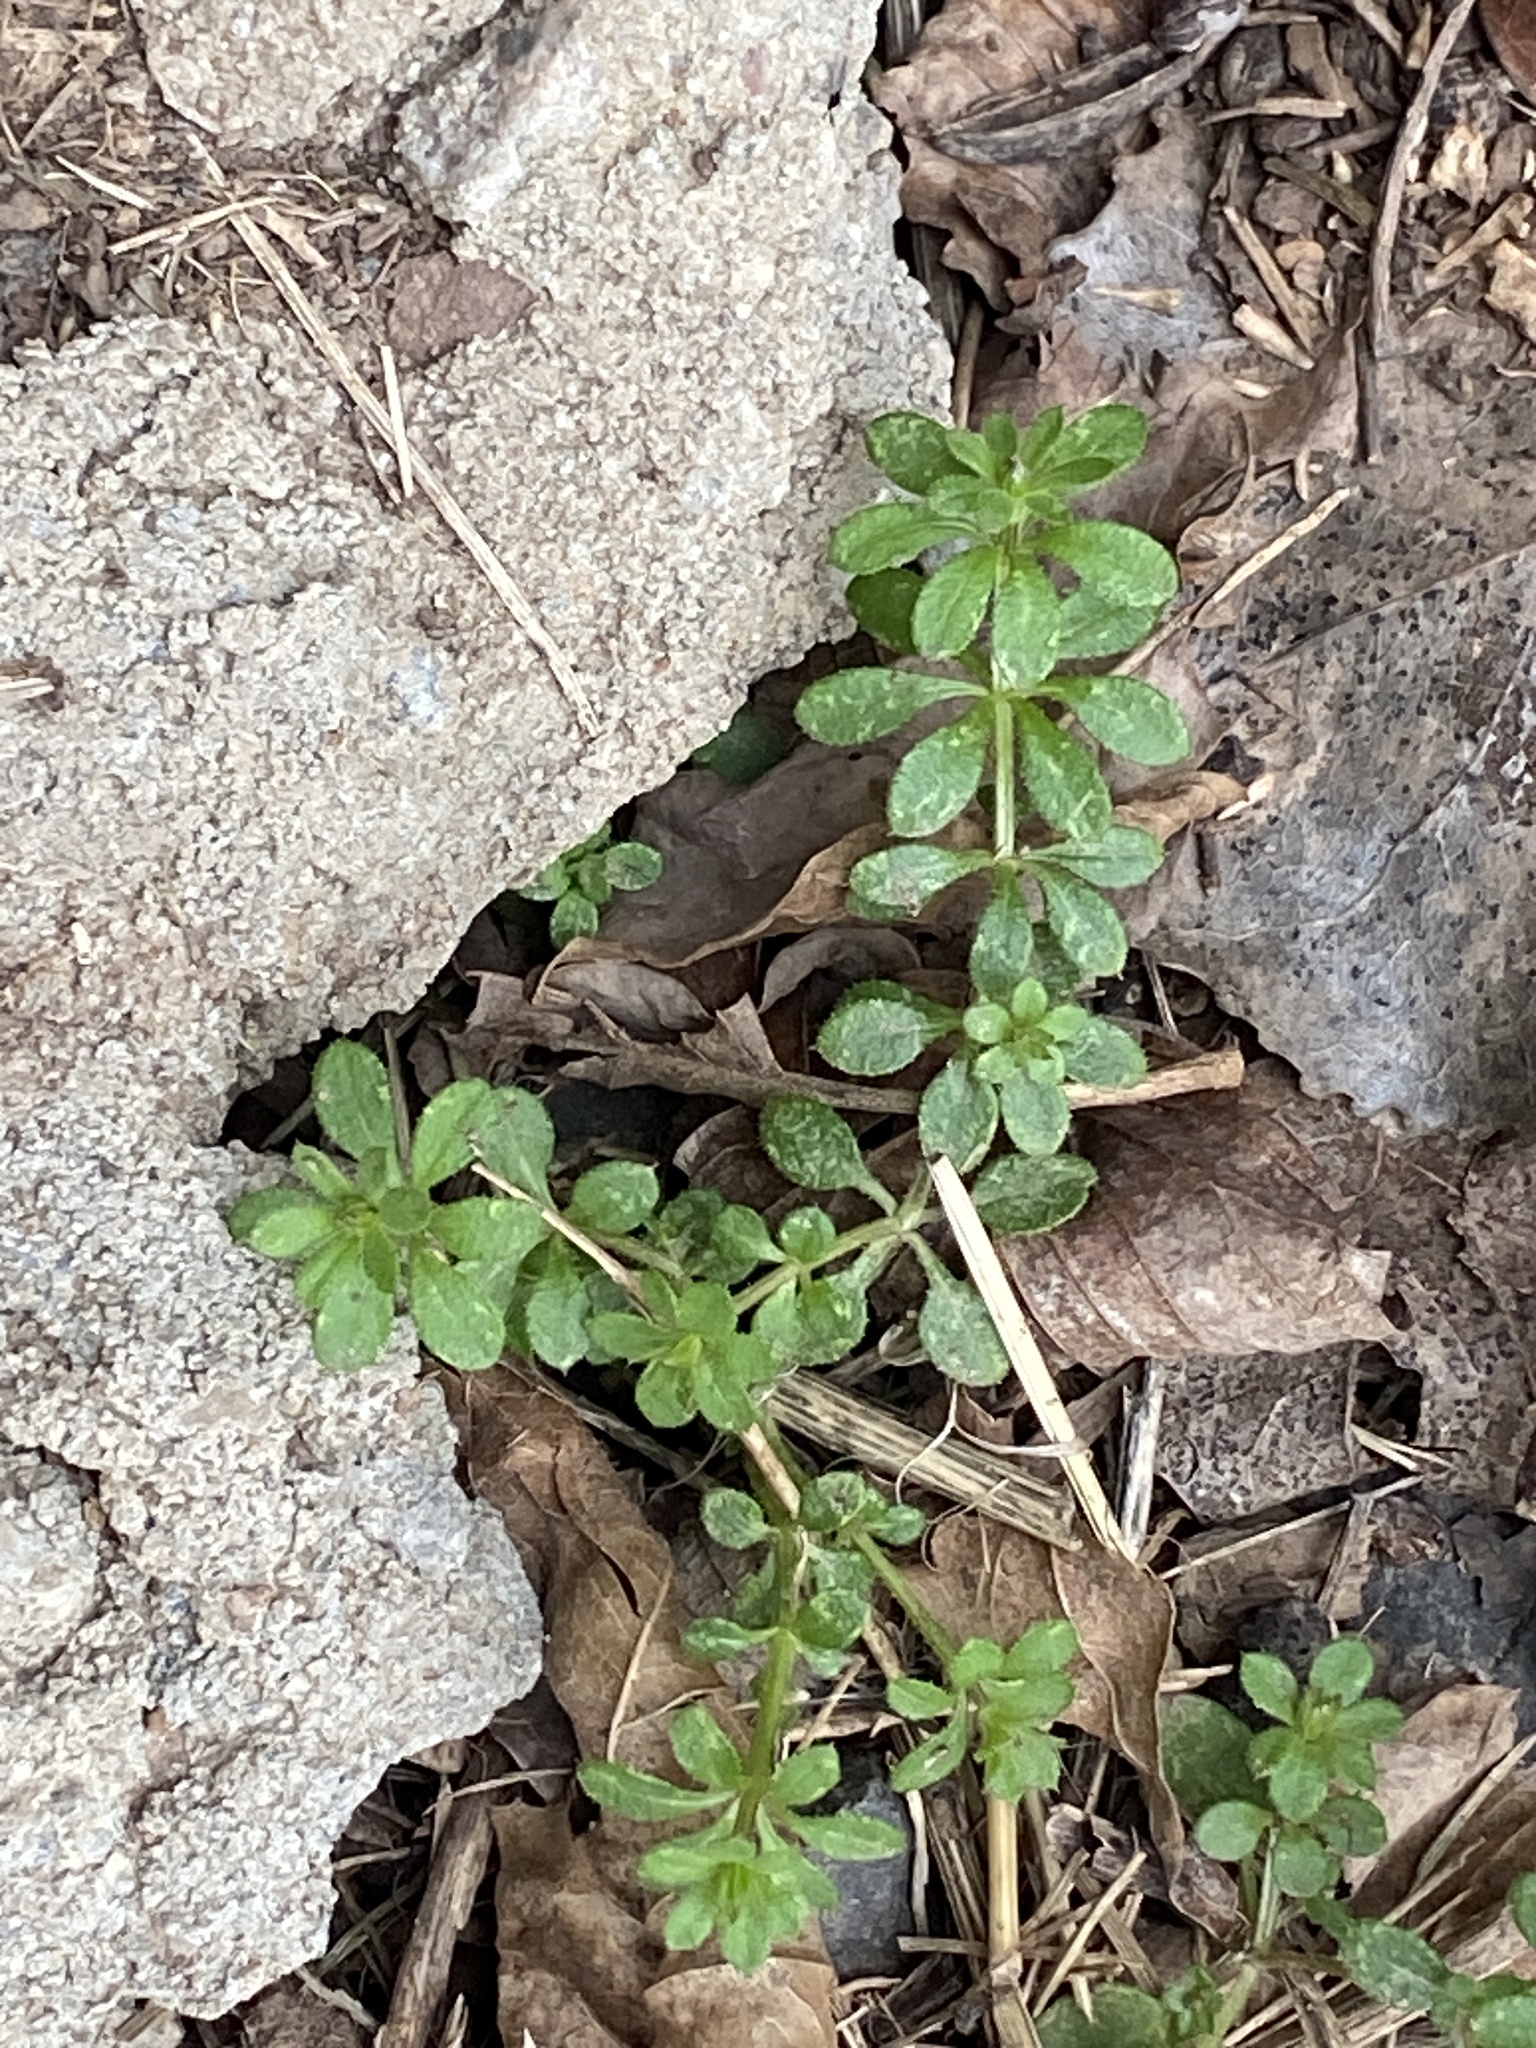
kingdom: Plantae
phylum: Tracheophyta
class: Magnoliopsida
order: Gentianales
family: Rubiaceae
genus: Galium
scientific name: Galium aparine
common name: Cleavers
